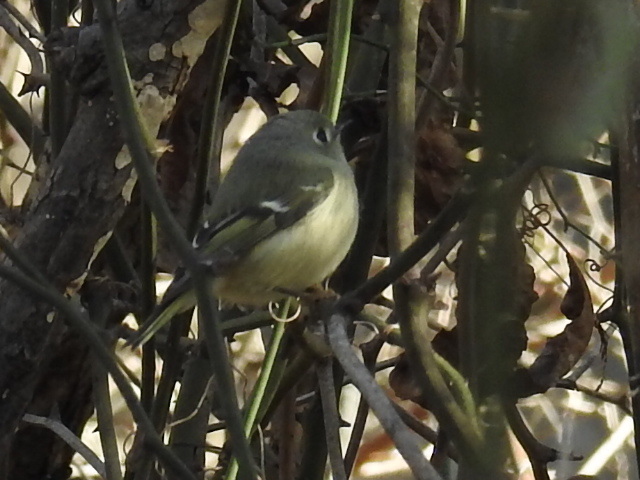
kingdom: Animalia
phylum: Chordata
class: Aves
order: Passeriformes
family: Regulidae
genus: Regulus
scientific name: Regulus calendula
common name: Ruby-crowned kinglet
